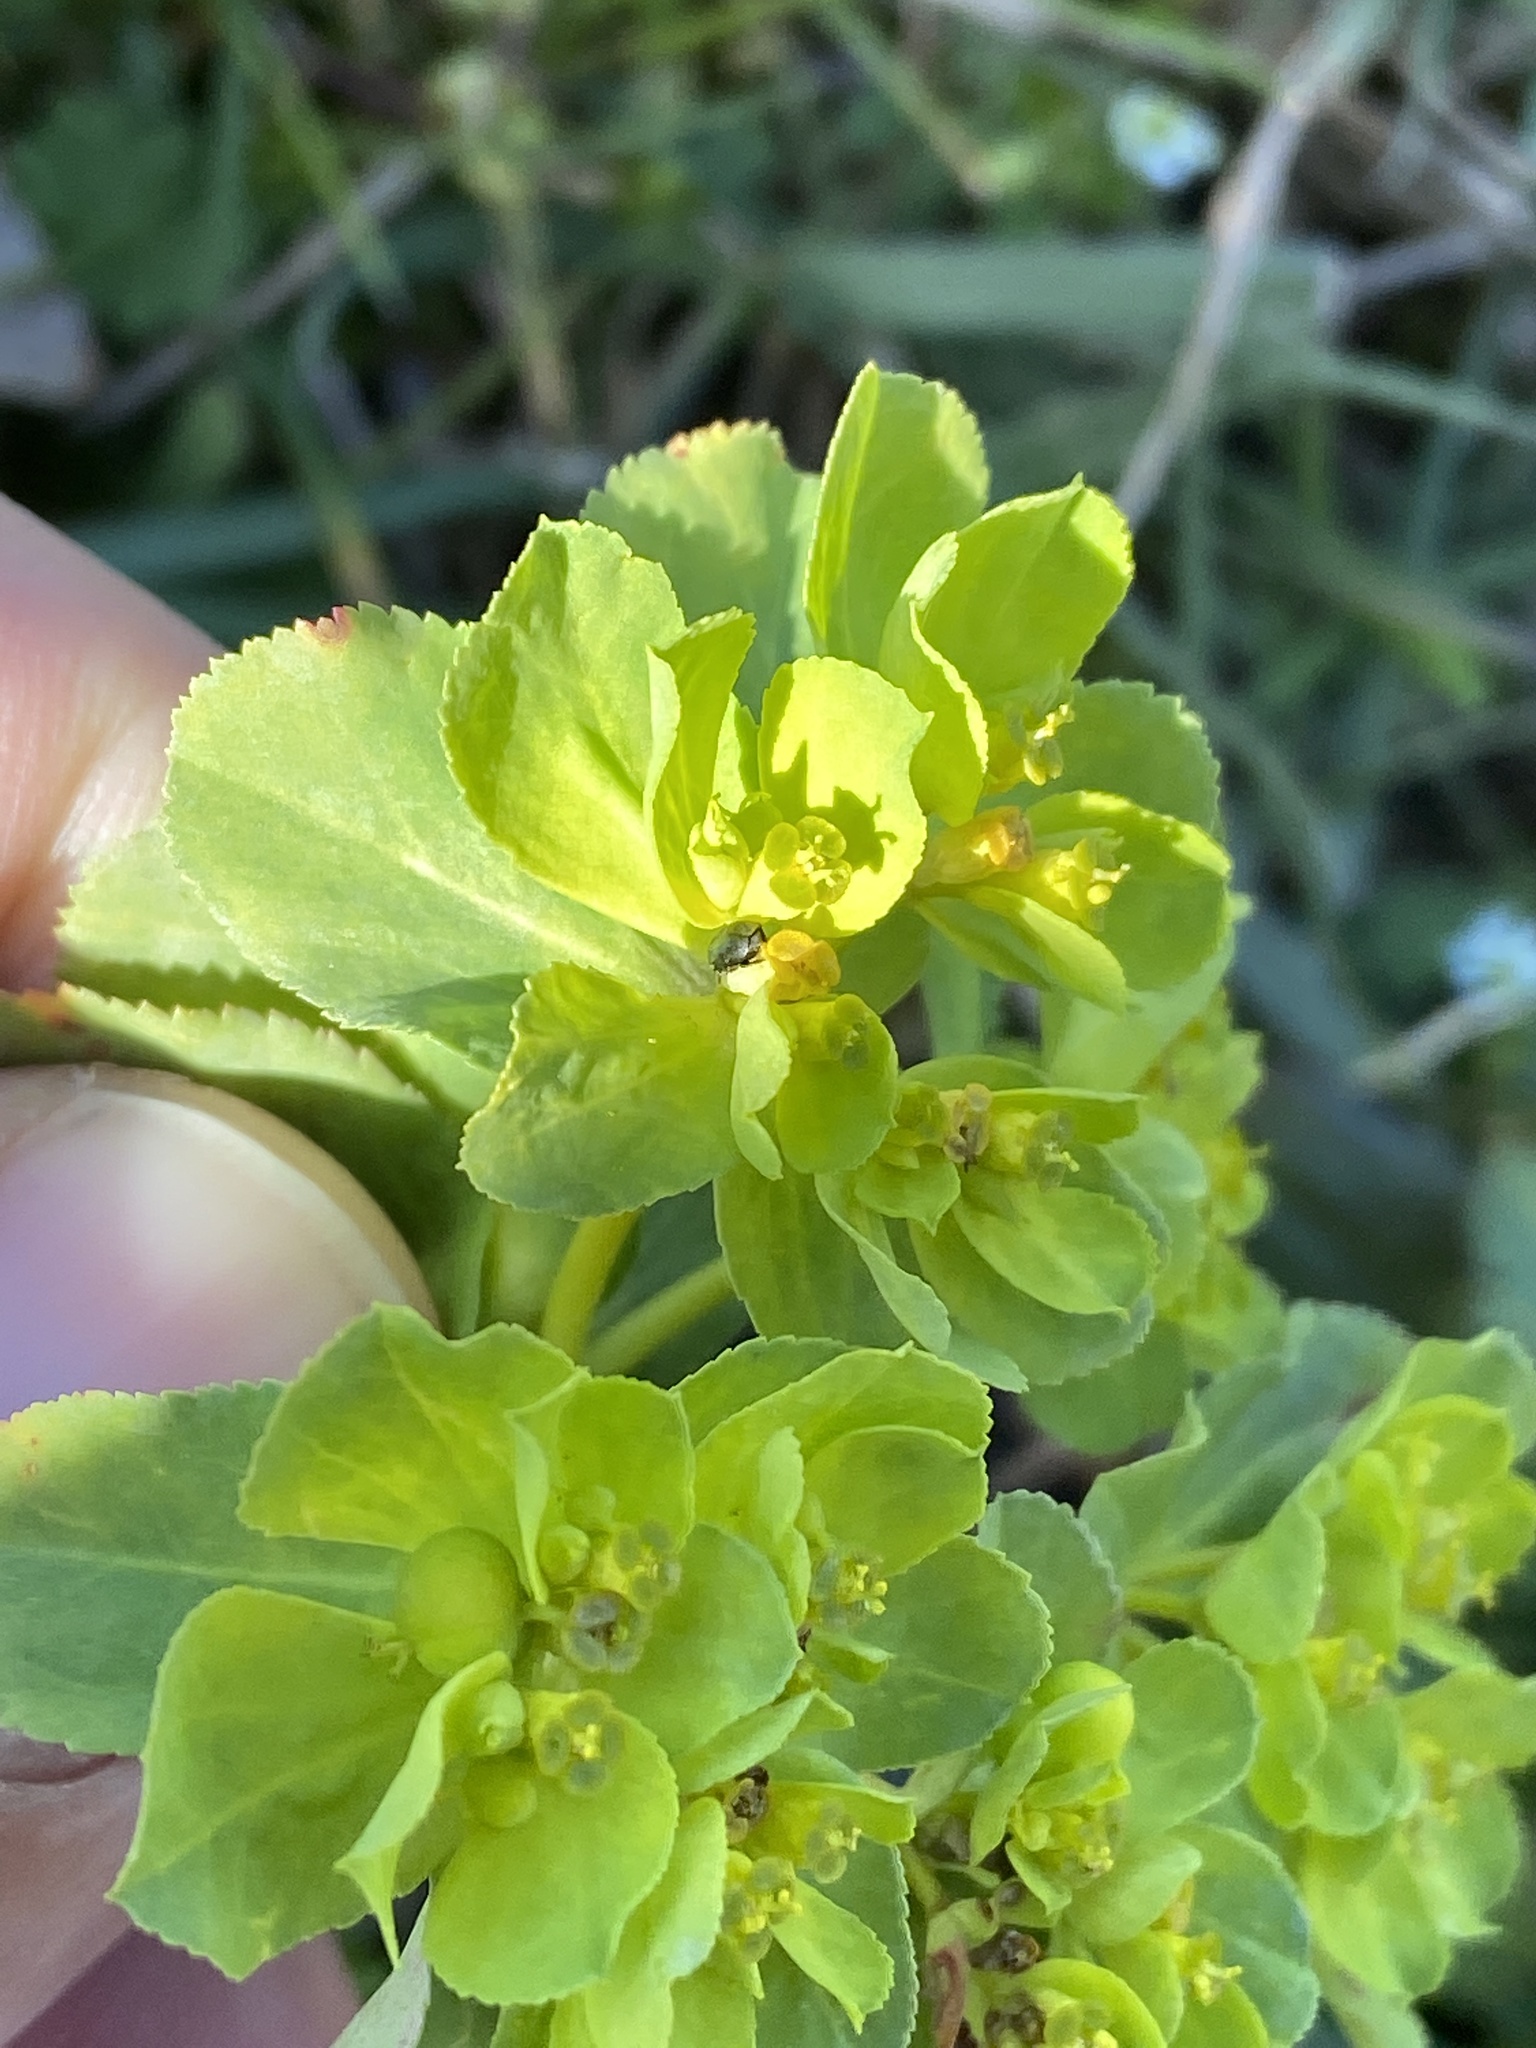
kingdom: Plantae
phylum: Tracheophyta
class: Magnoliopsida
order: Malpighiales
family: Euphorbiaceae
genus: Euphorbia
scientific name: Euphorbia helioscopia
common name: Sun spurge
